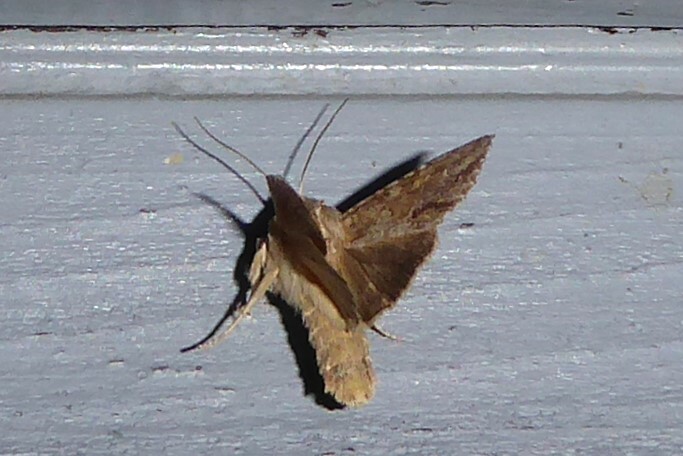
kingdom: Animalia
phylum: Arthropoda
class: Insecta
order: Lepidoptera
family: Noctuidae
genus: Ichneutica
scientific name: Ichneutica mollis
